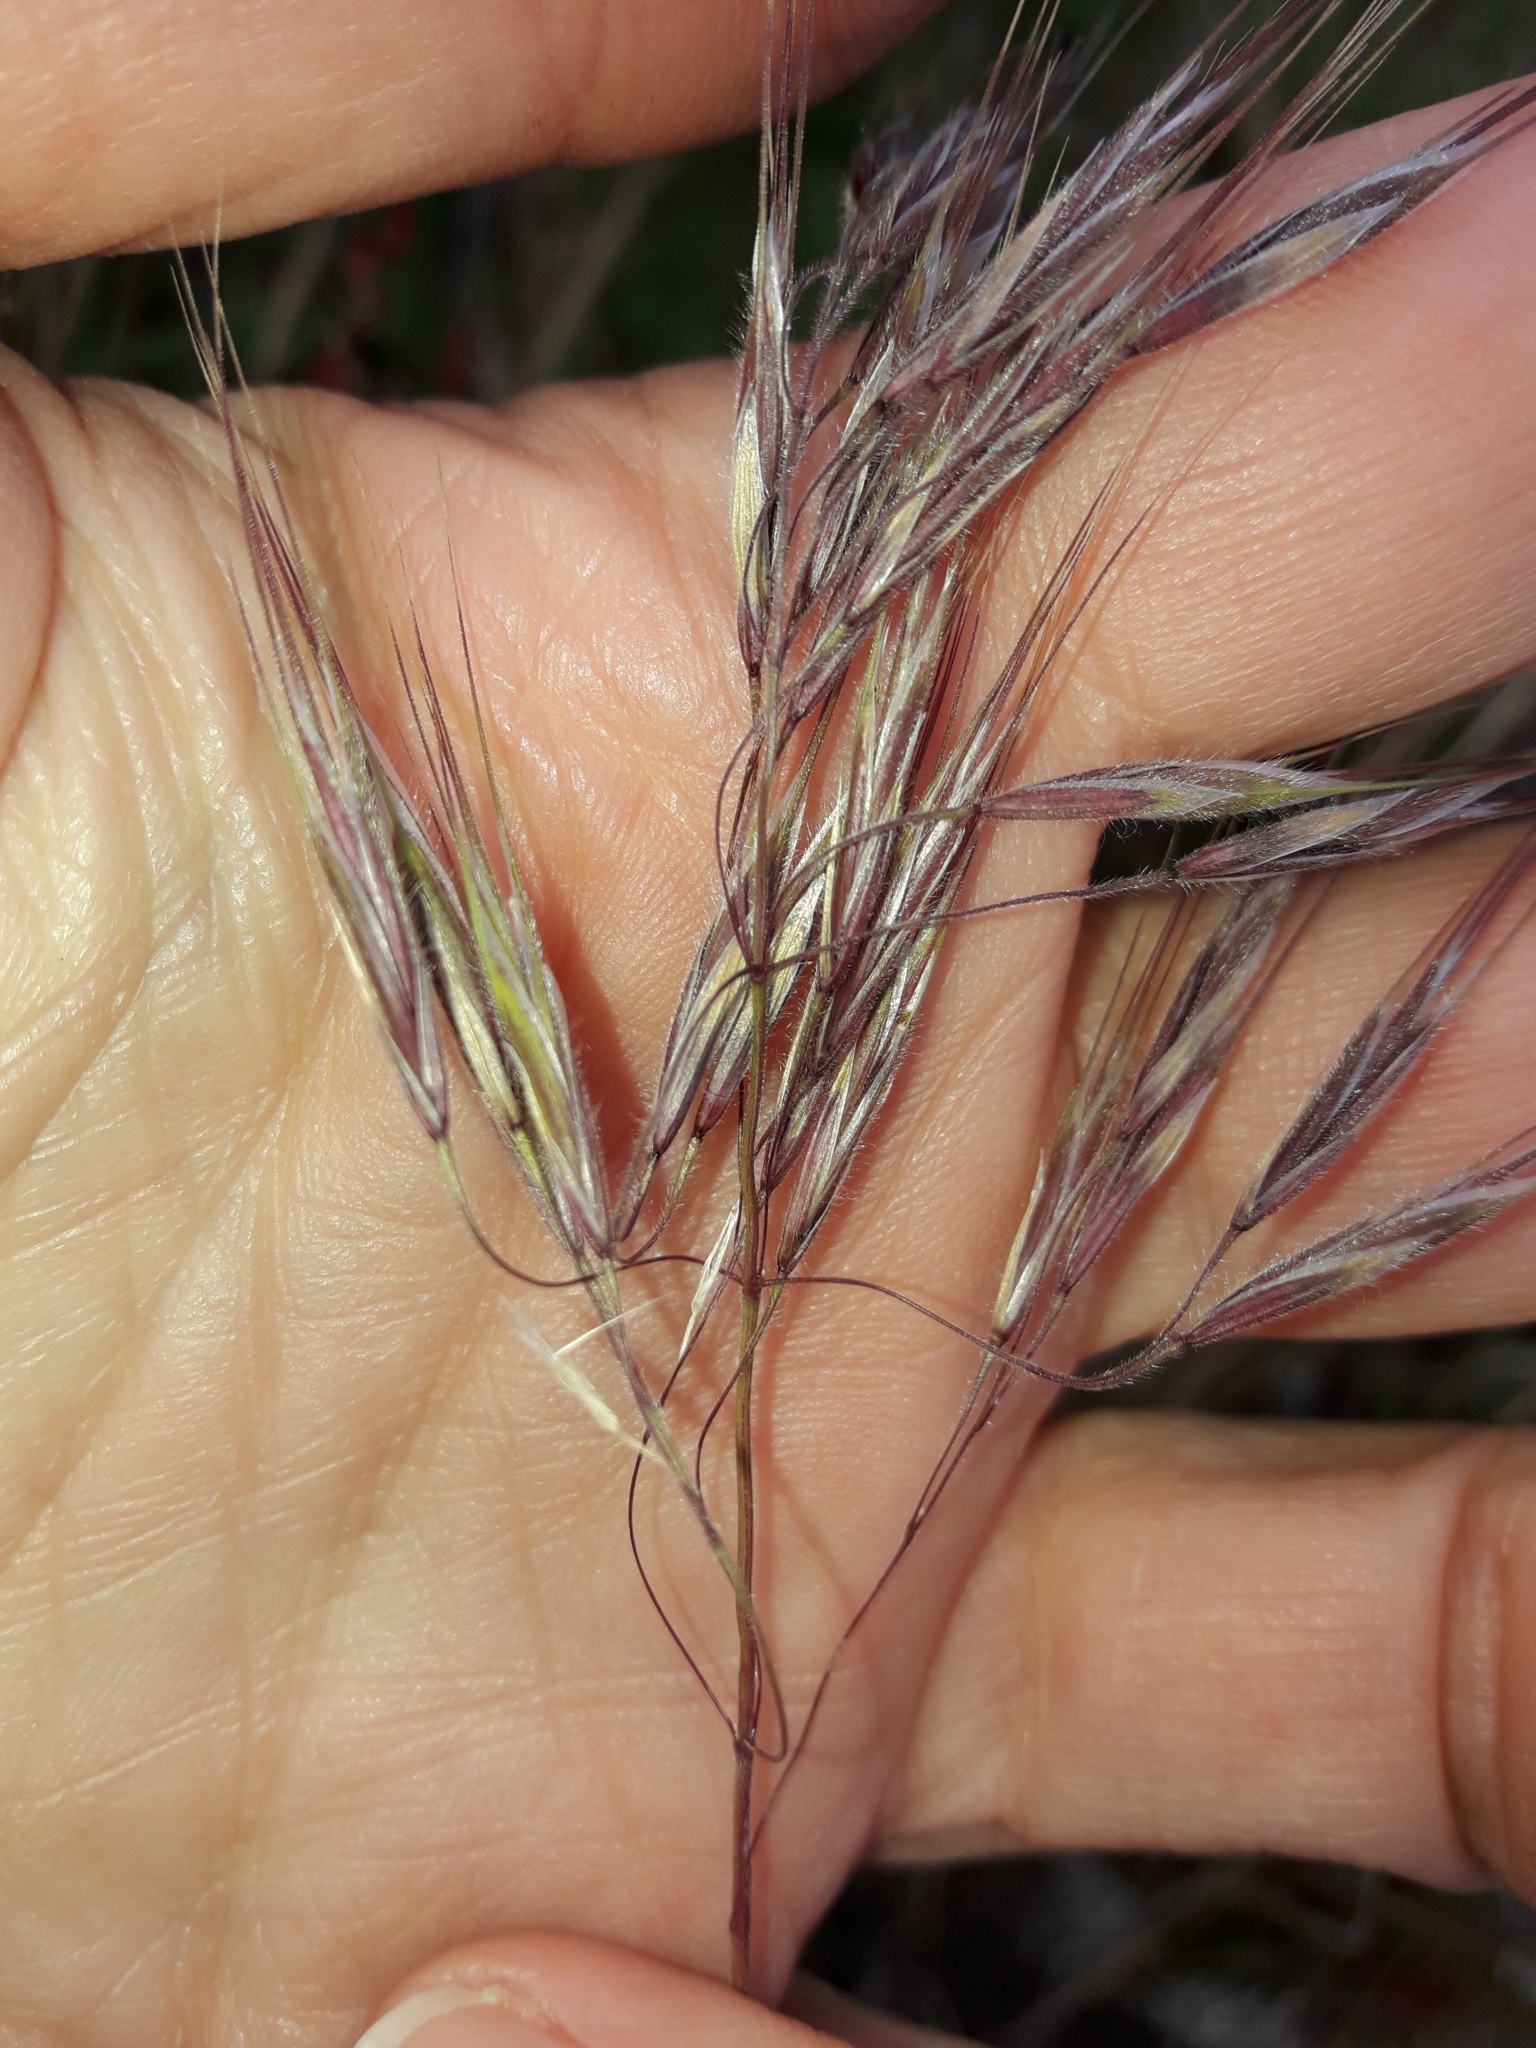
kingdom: Plantae
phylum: Tracheophyta
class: Liliopsida
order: Poales
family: Poaceae
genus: Bromus
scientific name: Bromus tectorum
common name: Cheatgrass
